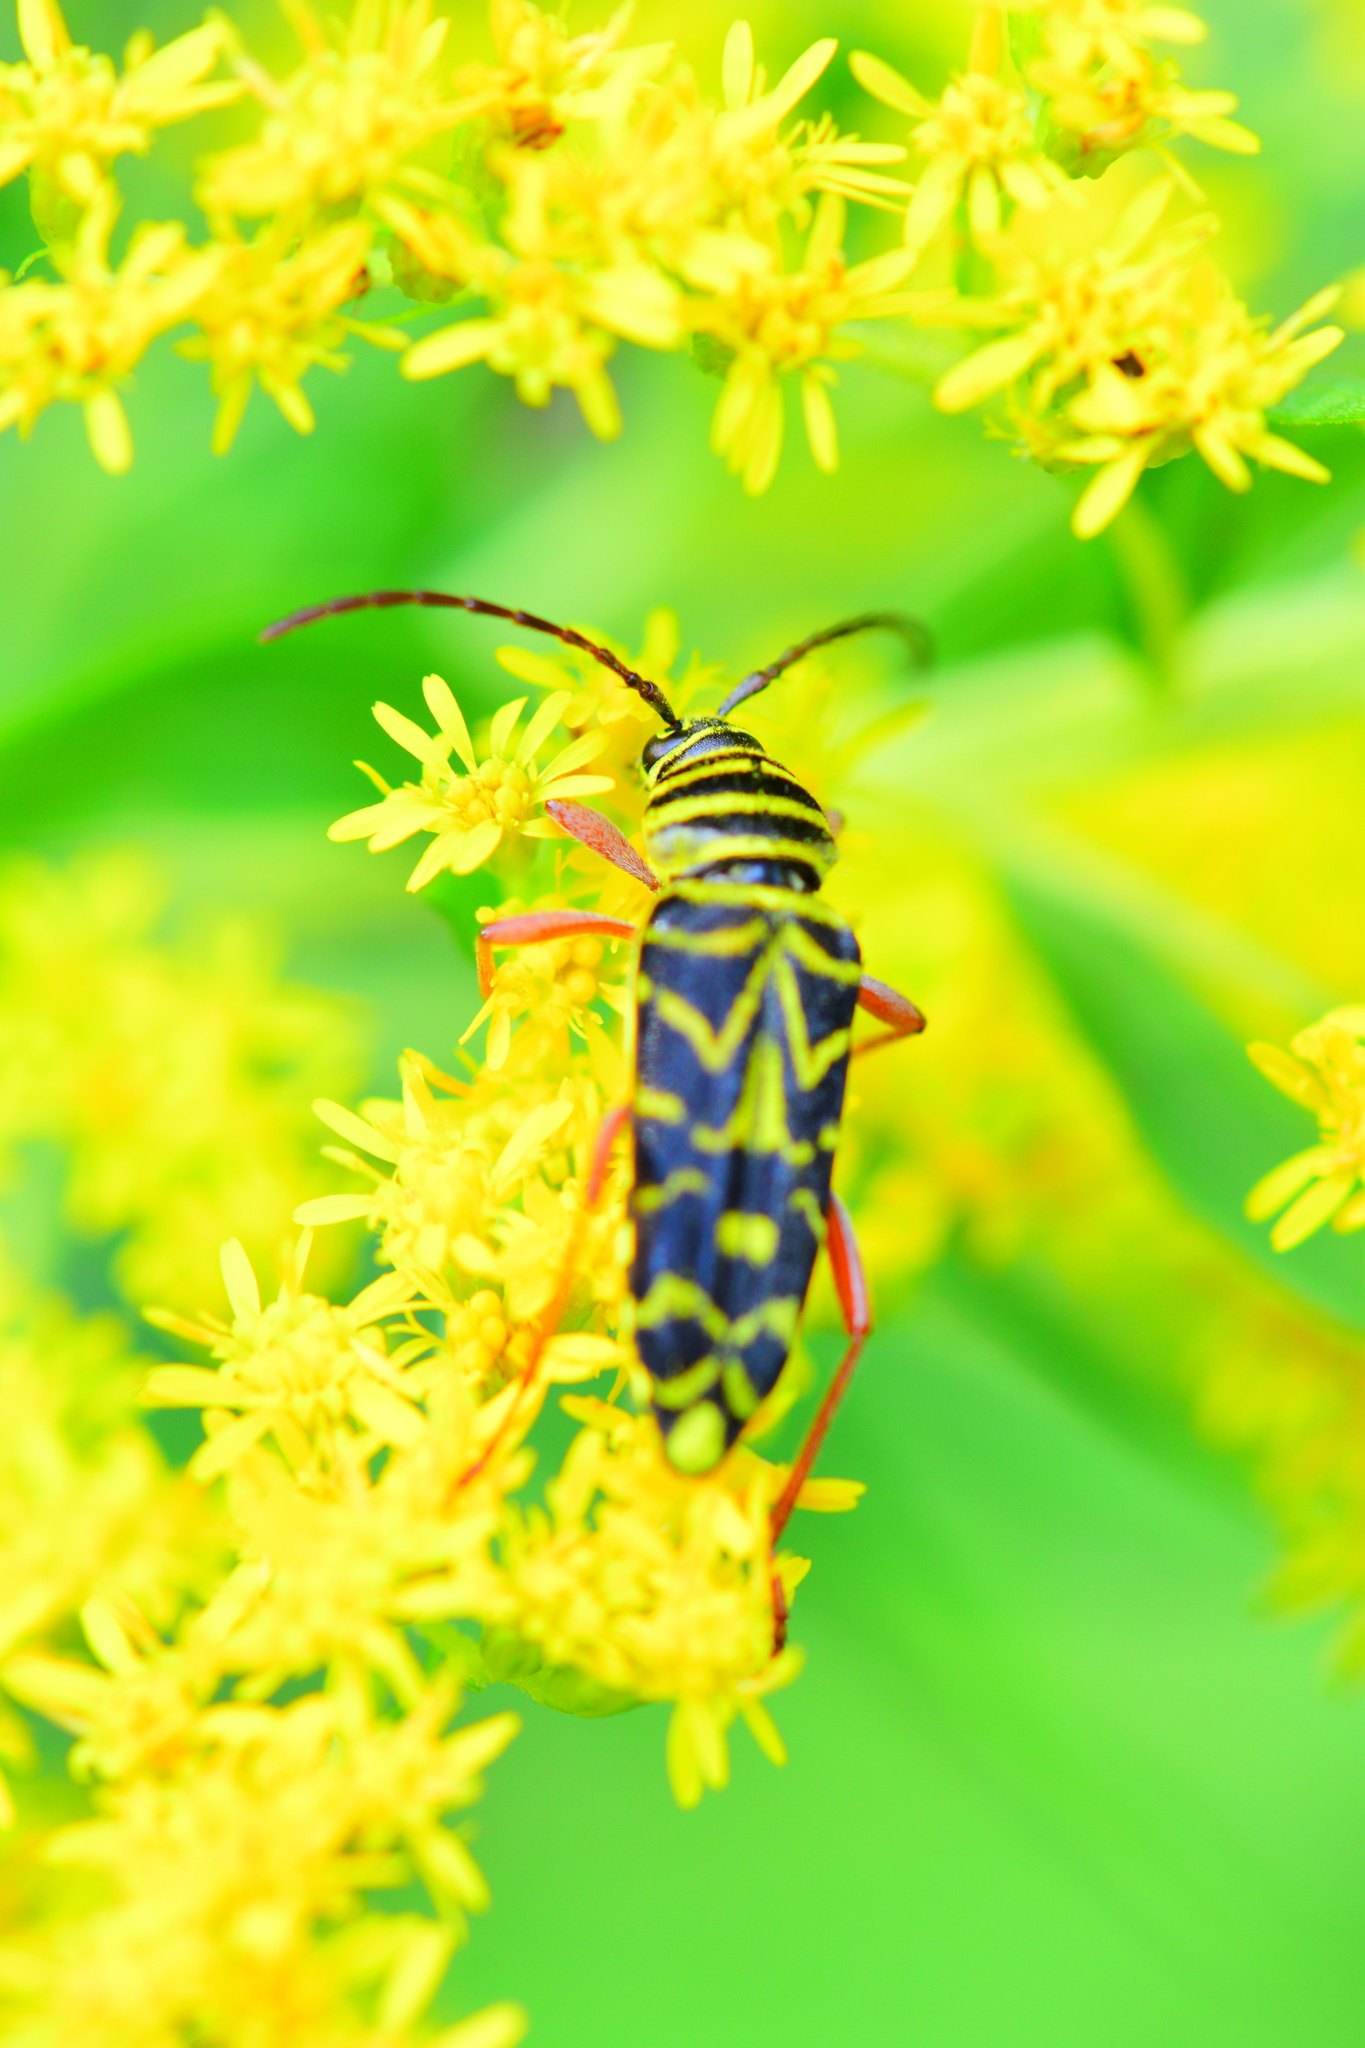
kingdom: Animalia
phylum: Arthropoda
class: Insecta
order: Coleoptera
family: Cerambycidae
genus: Megacyllene
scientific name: Megacyllene robiniae
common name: Locust borer
